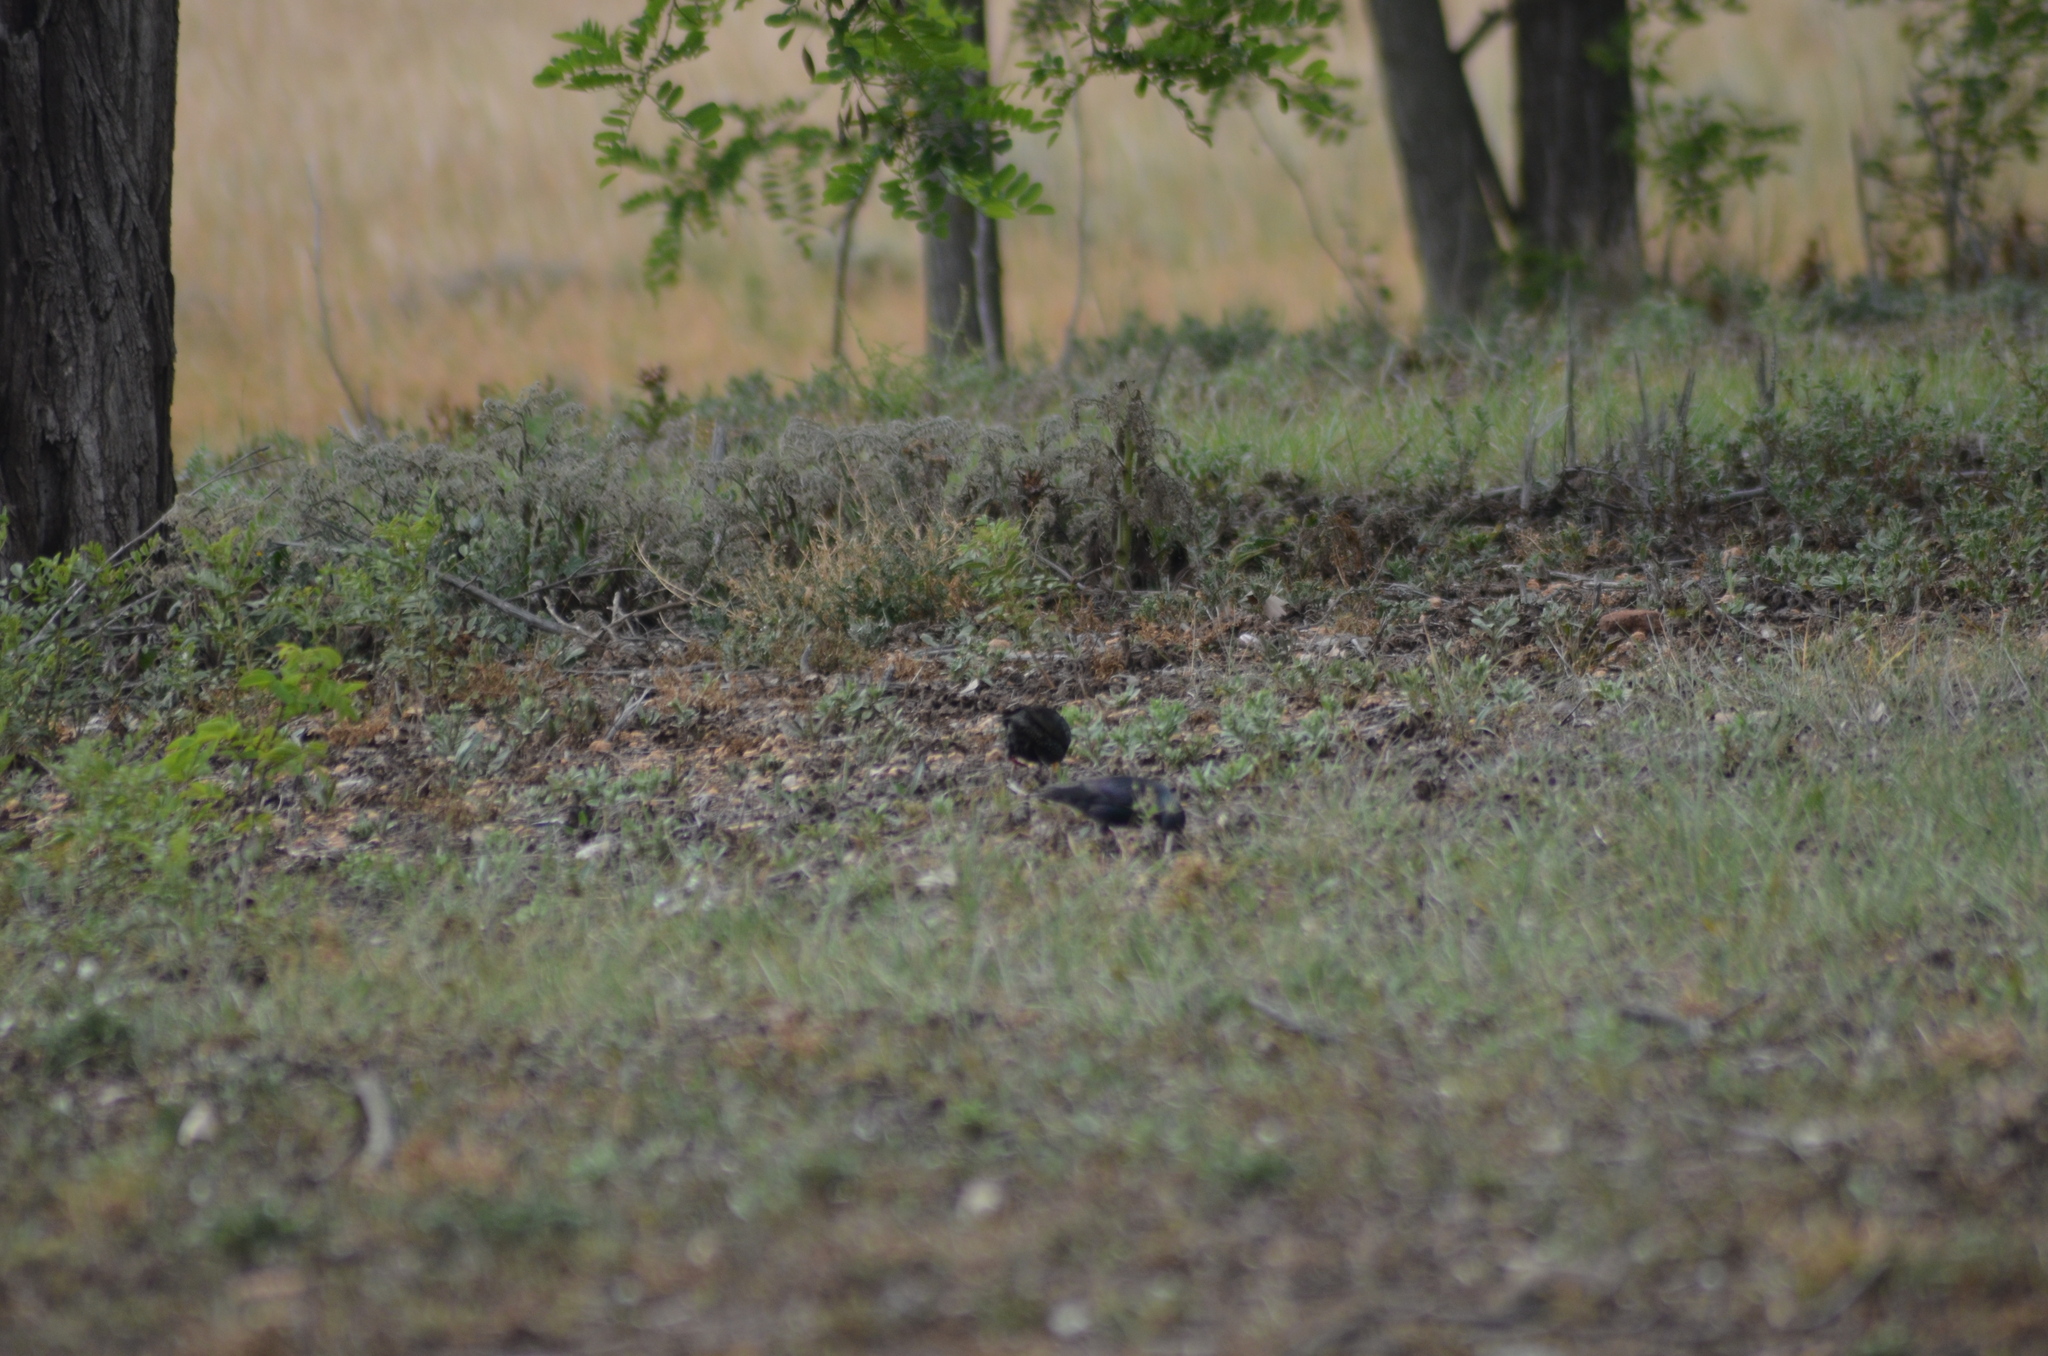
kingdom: Animalia
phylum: Chordata
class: Aves
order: Passeriformes
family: Sturnidae
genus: Sturnus
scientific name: Sturnus vulgaris
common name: Common starling
